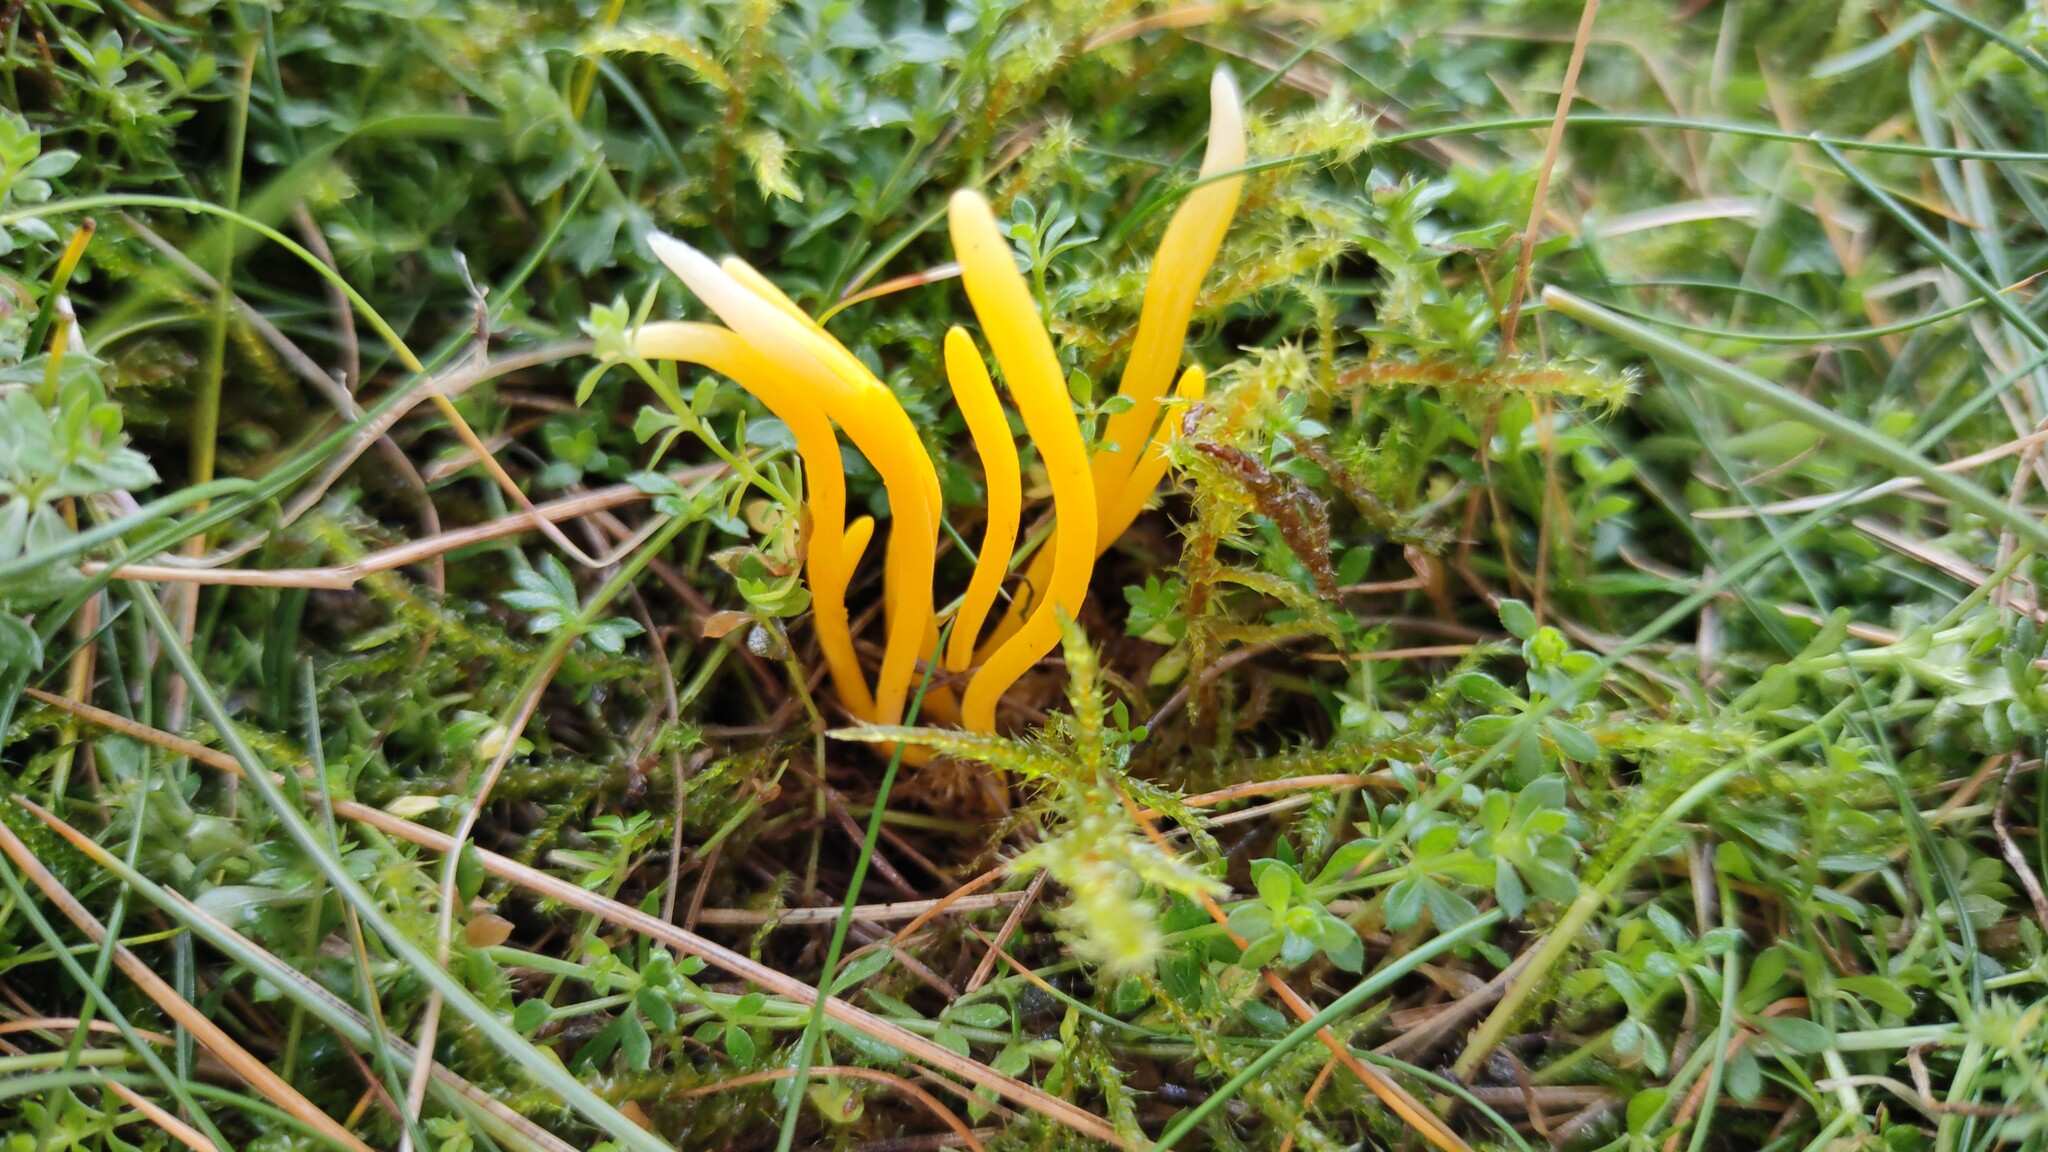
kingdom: Fungi
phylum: Basidiomycota
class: Agaricomycetes
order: Agaricales
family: Clavariaceae
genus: Clavulinopsis
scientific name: Clavulinopsis helvola
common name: Yellow club
